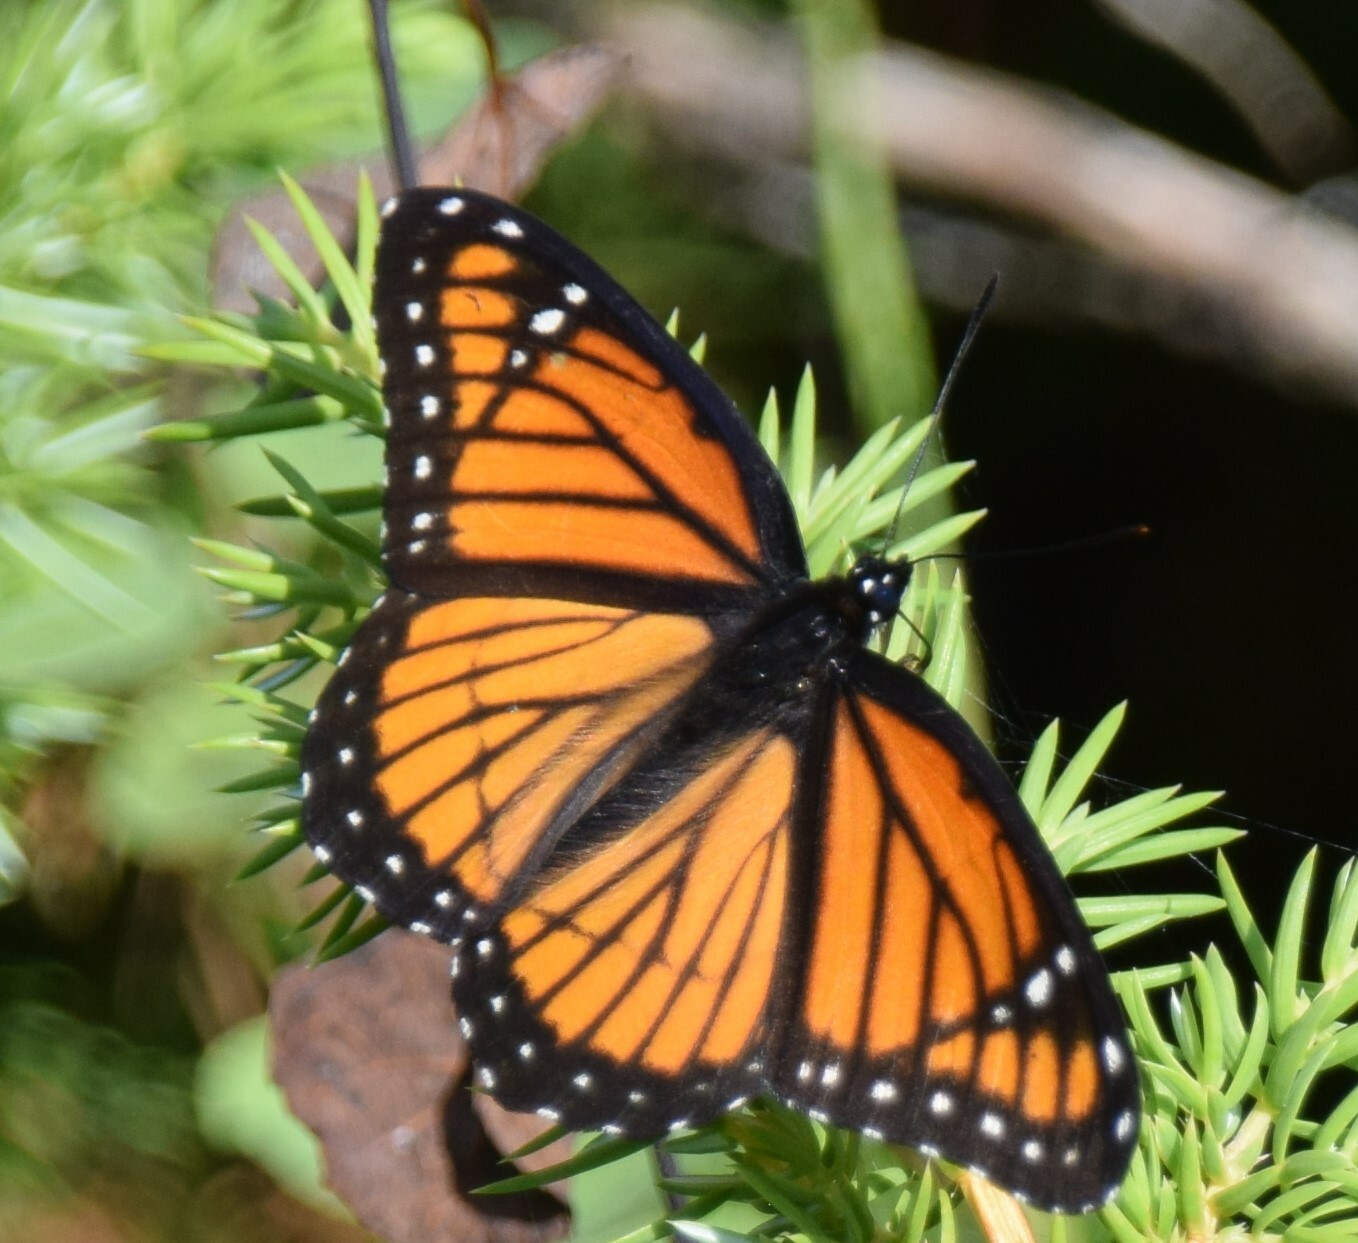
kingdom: Animalia
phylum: Arthropoda
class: Insecta
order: Lepidoptera
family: Nymphalidae
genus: Limenitis
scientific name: Limenitis archippus
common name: Viceroy
